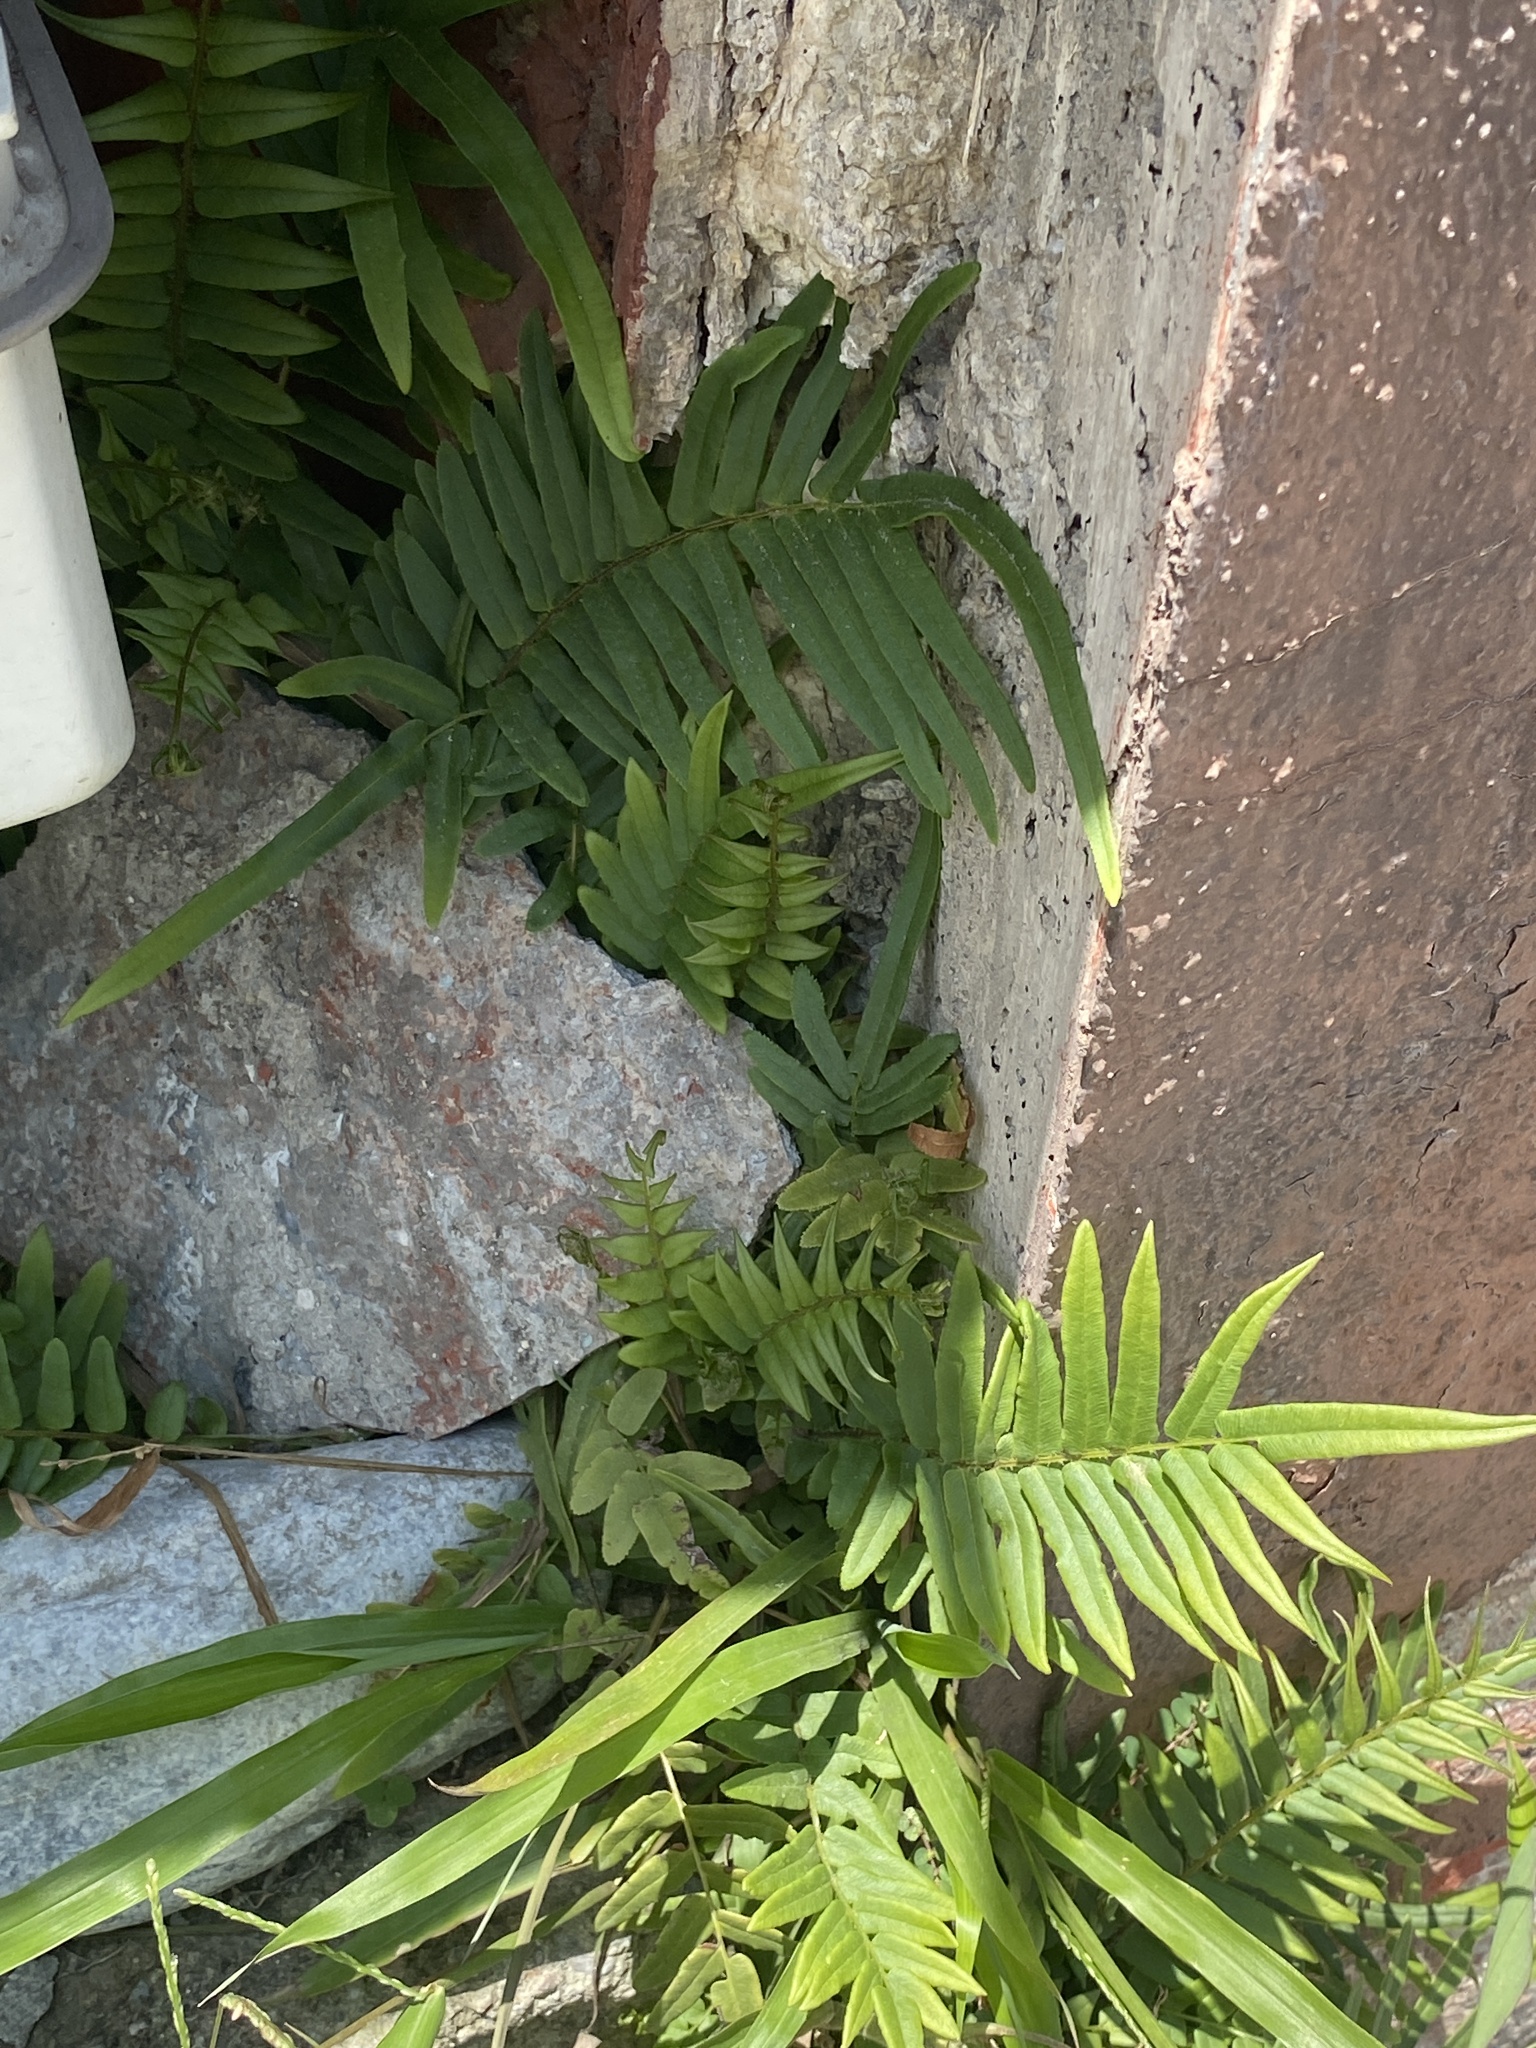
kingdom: Plantae
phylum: Tracheophyta
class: Polypodiopsida
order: Polypodiales
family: Pteridaceae
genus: Pteris
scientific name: Pteris vittata
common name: Ladder brake
